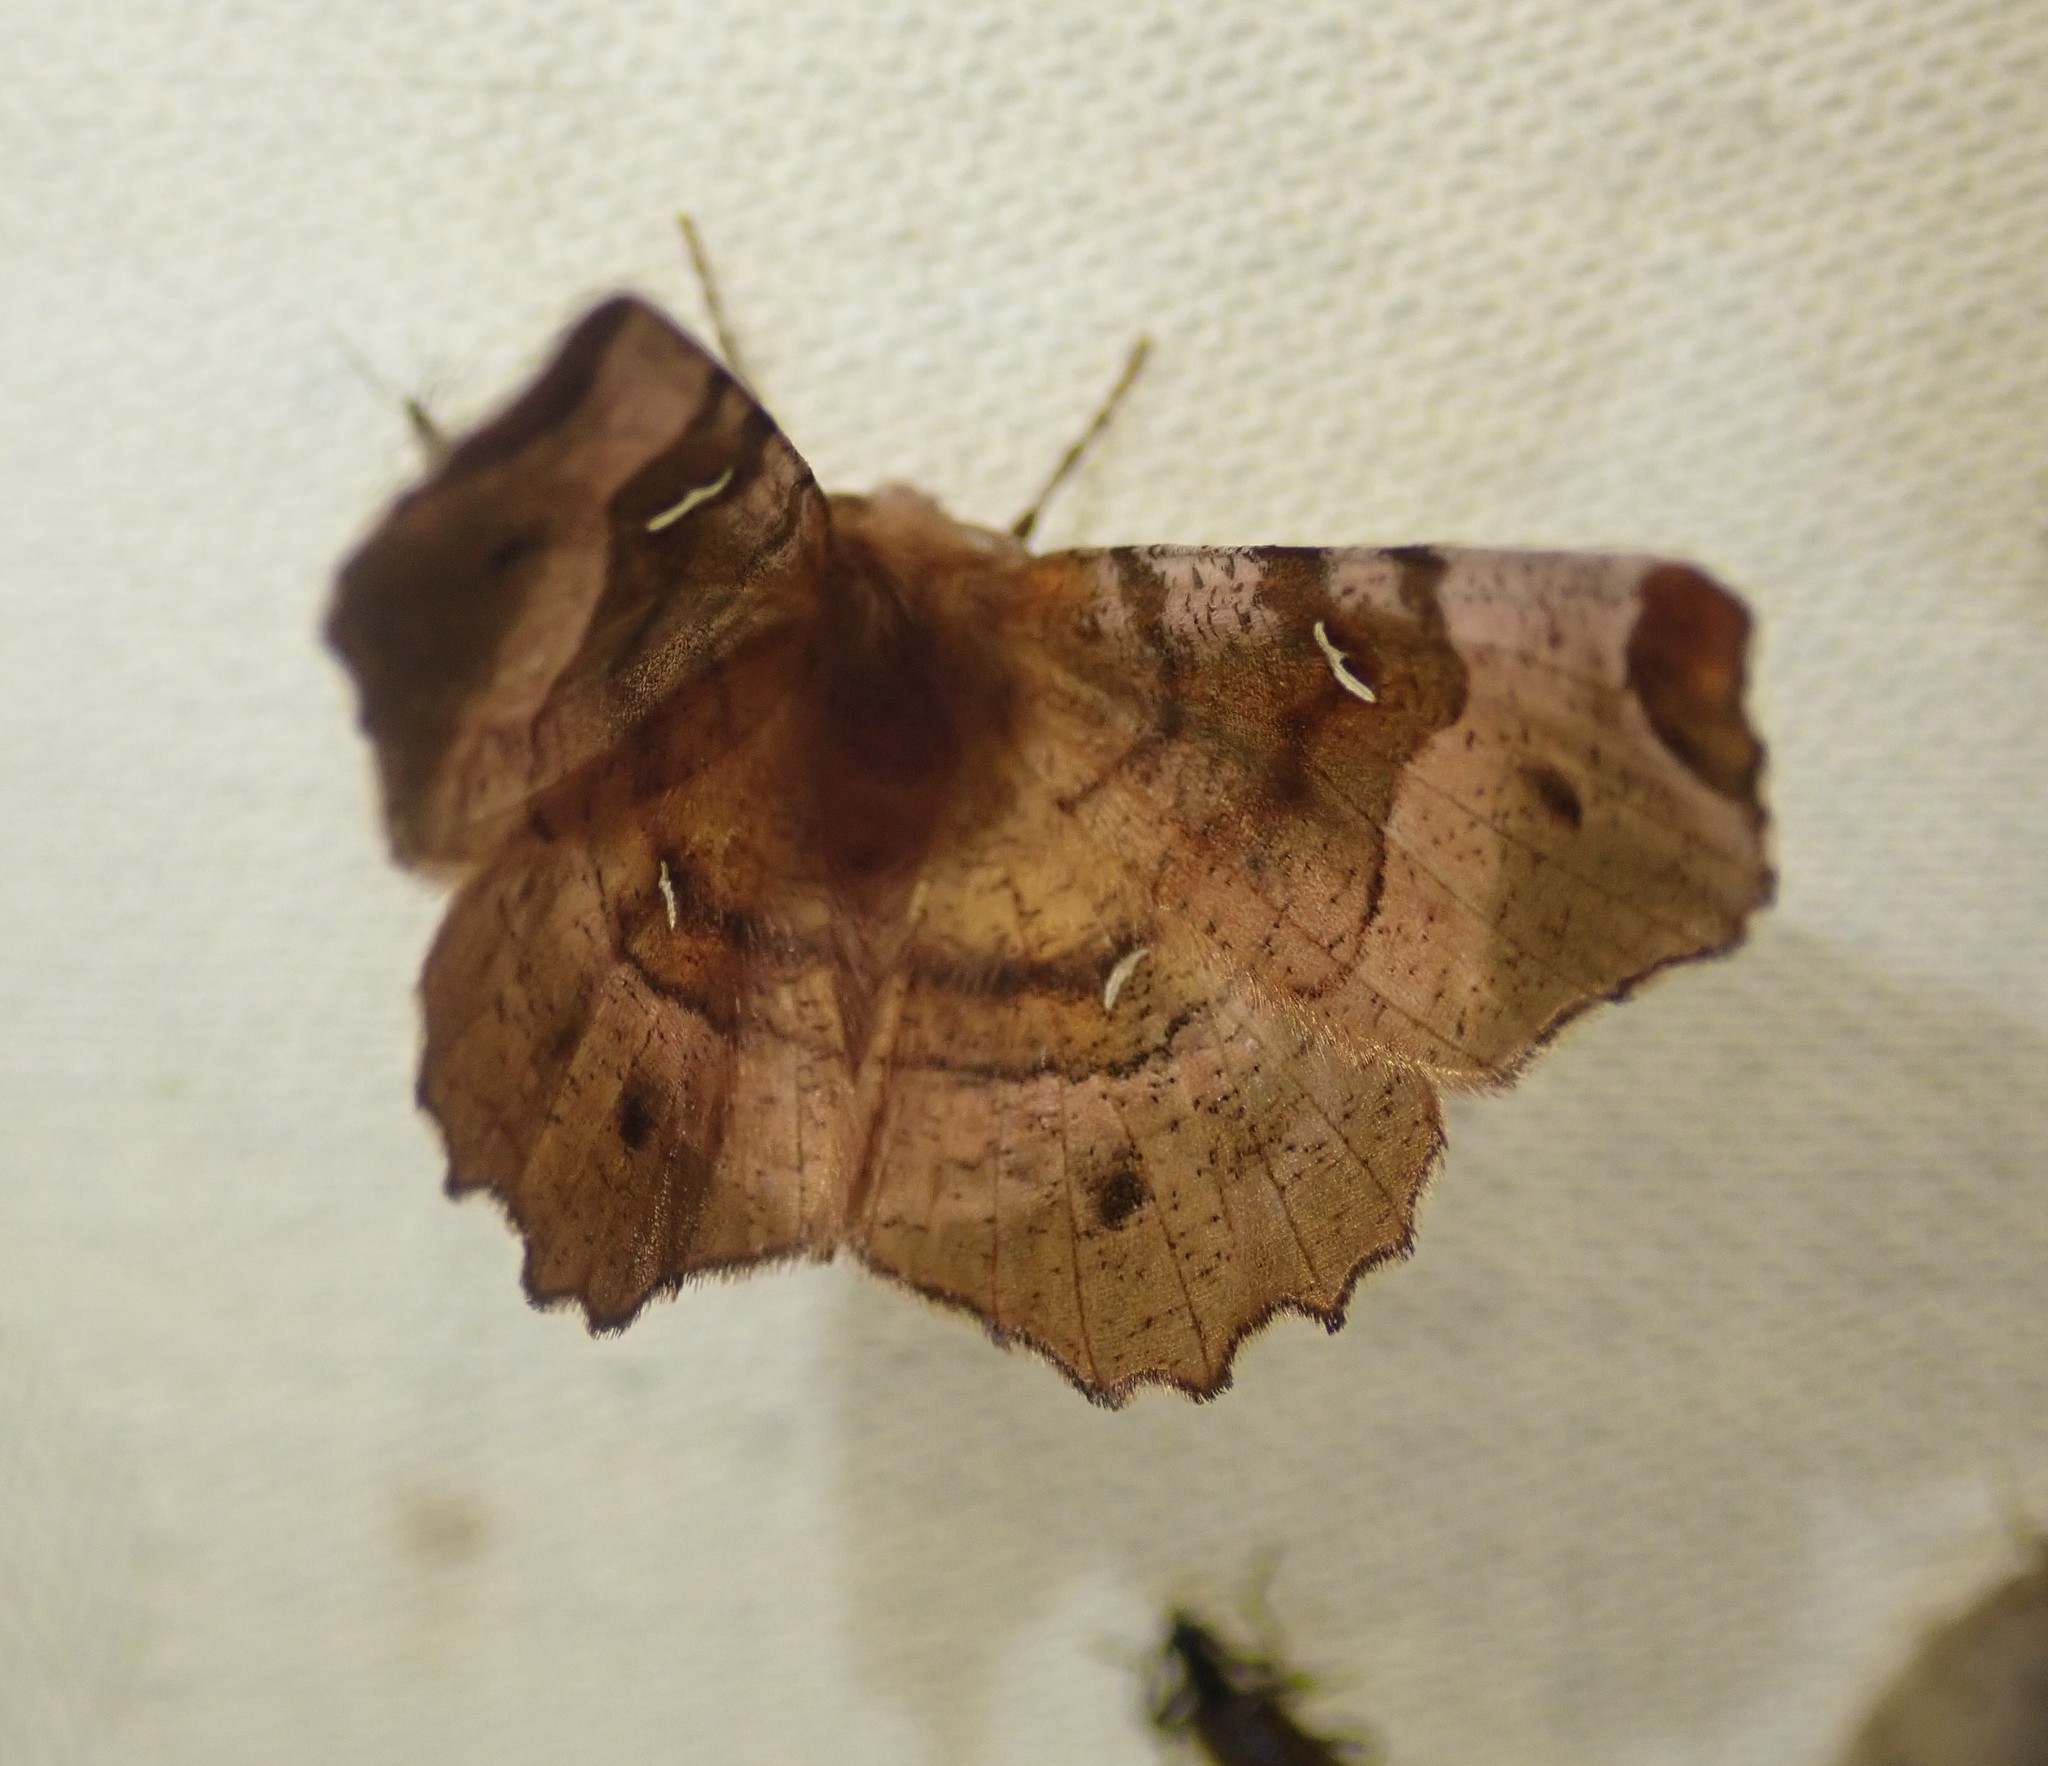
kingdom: Animalia
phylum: Arthropoda
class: Insecta
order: Lepidoptera
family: Geometridae
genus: Selenia
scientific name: Selenia tetralunaria
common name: Purple thorn
